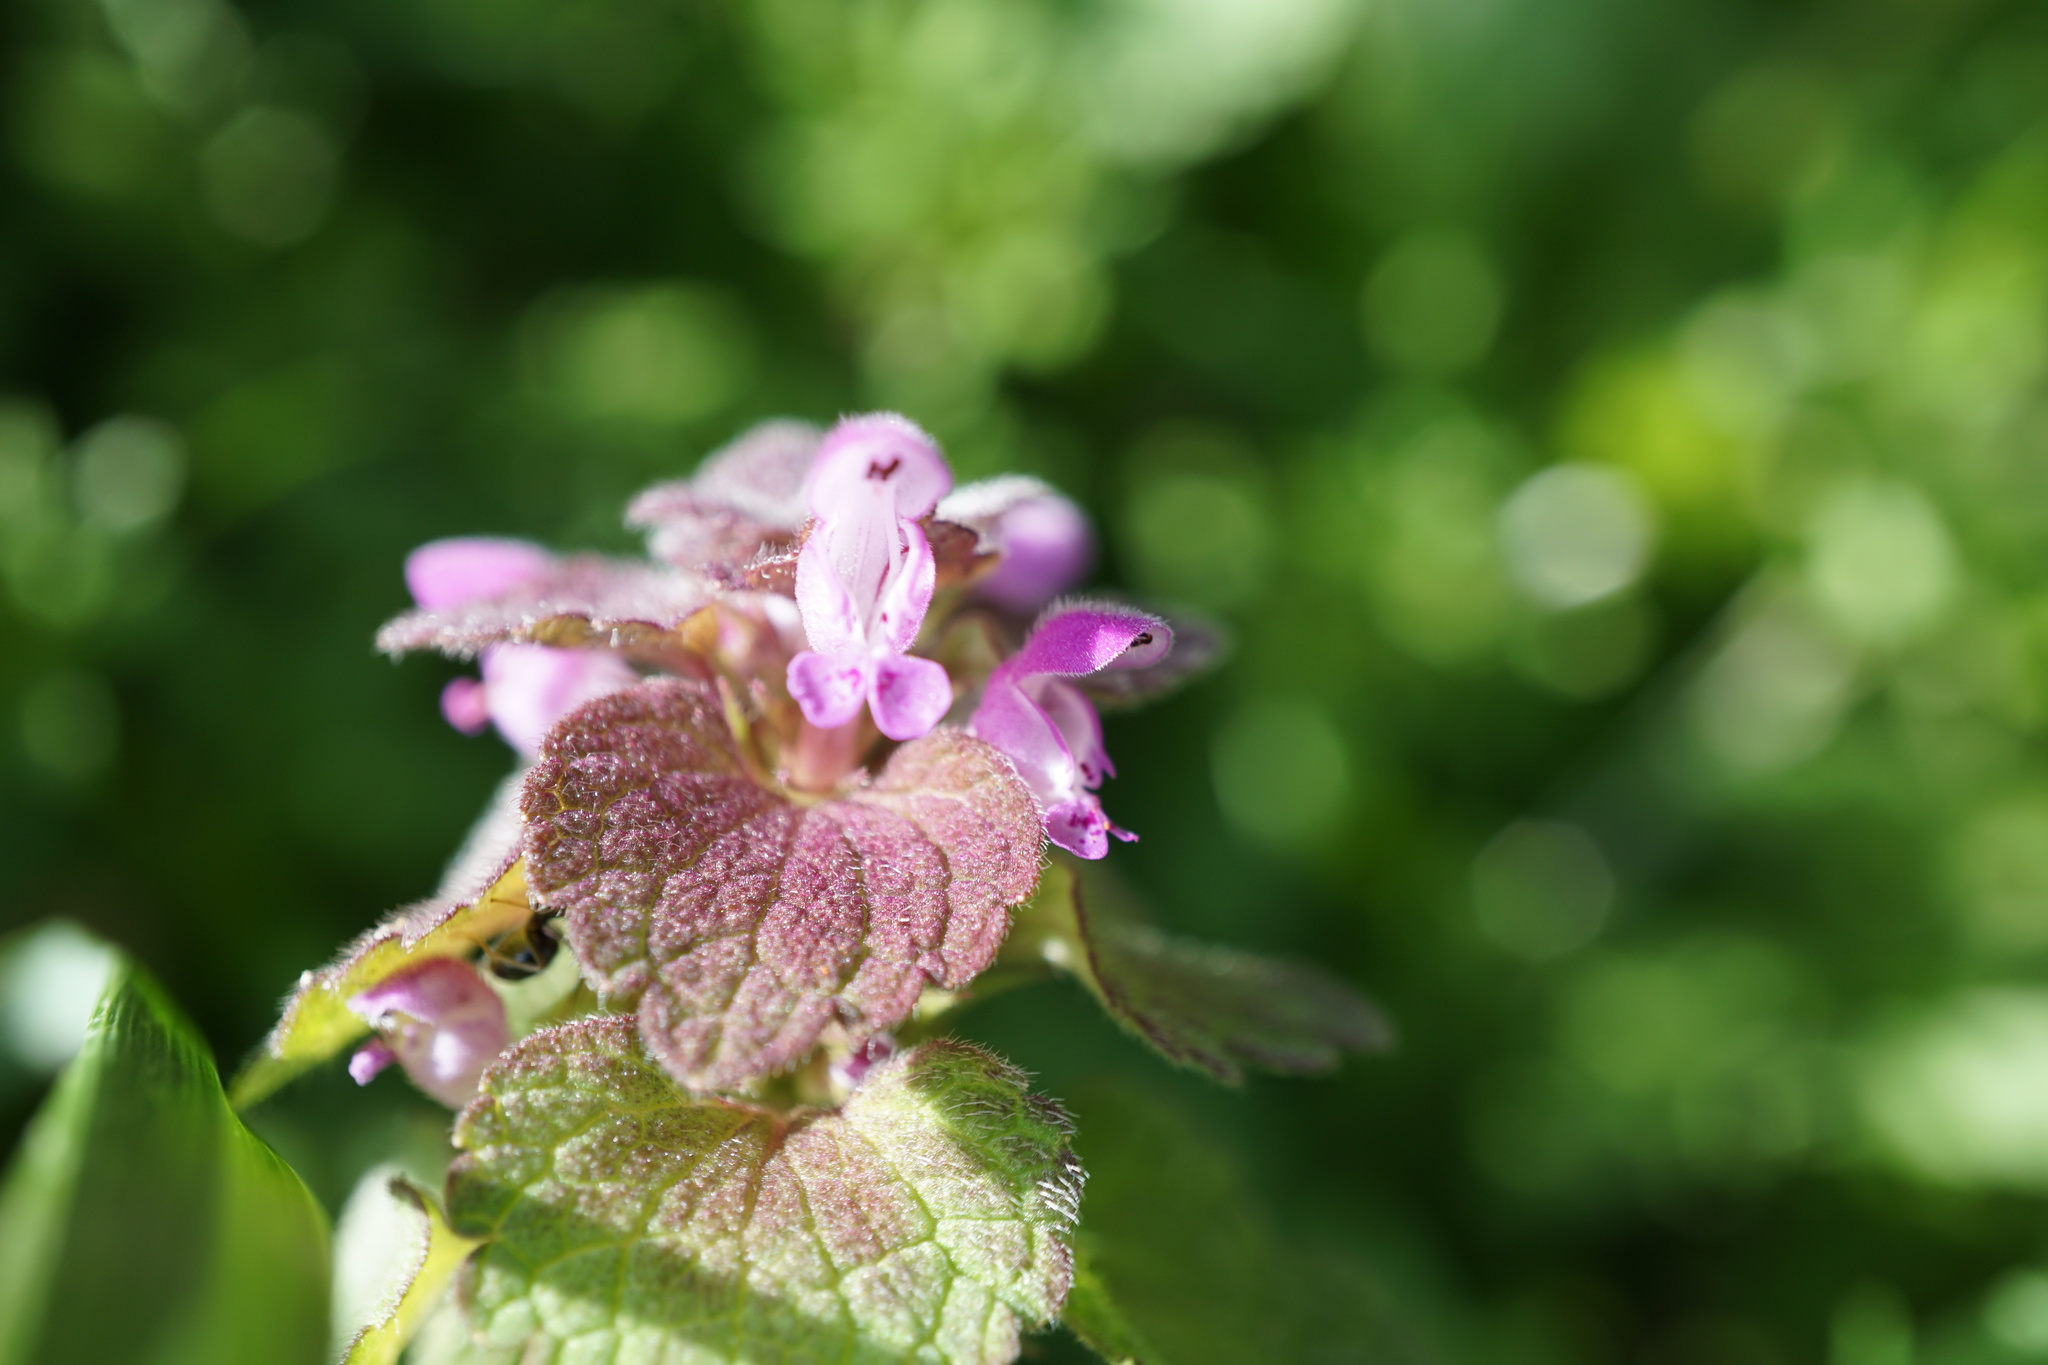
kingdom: Plantae
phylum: Tracheophyta
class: Magnoliopsida
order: Lamiales
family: Lamiaceae
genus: Lamium
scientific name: Lamium purpureum
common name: Red dead-nettle
